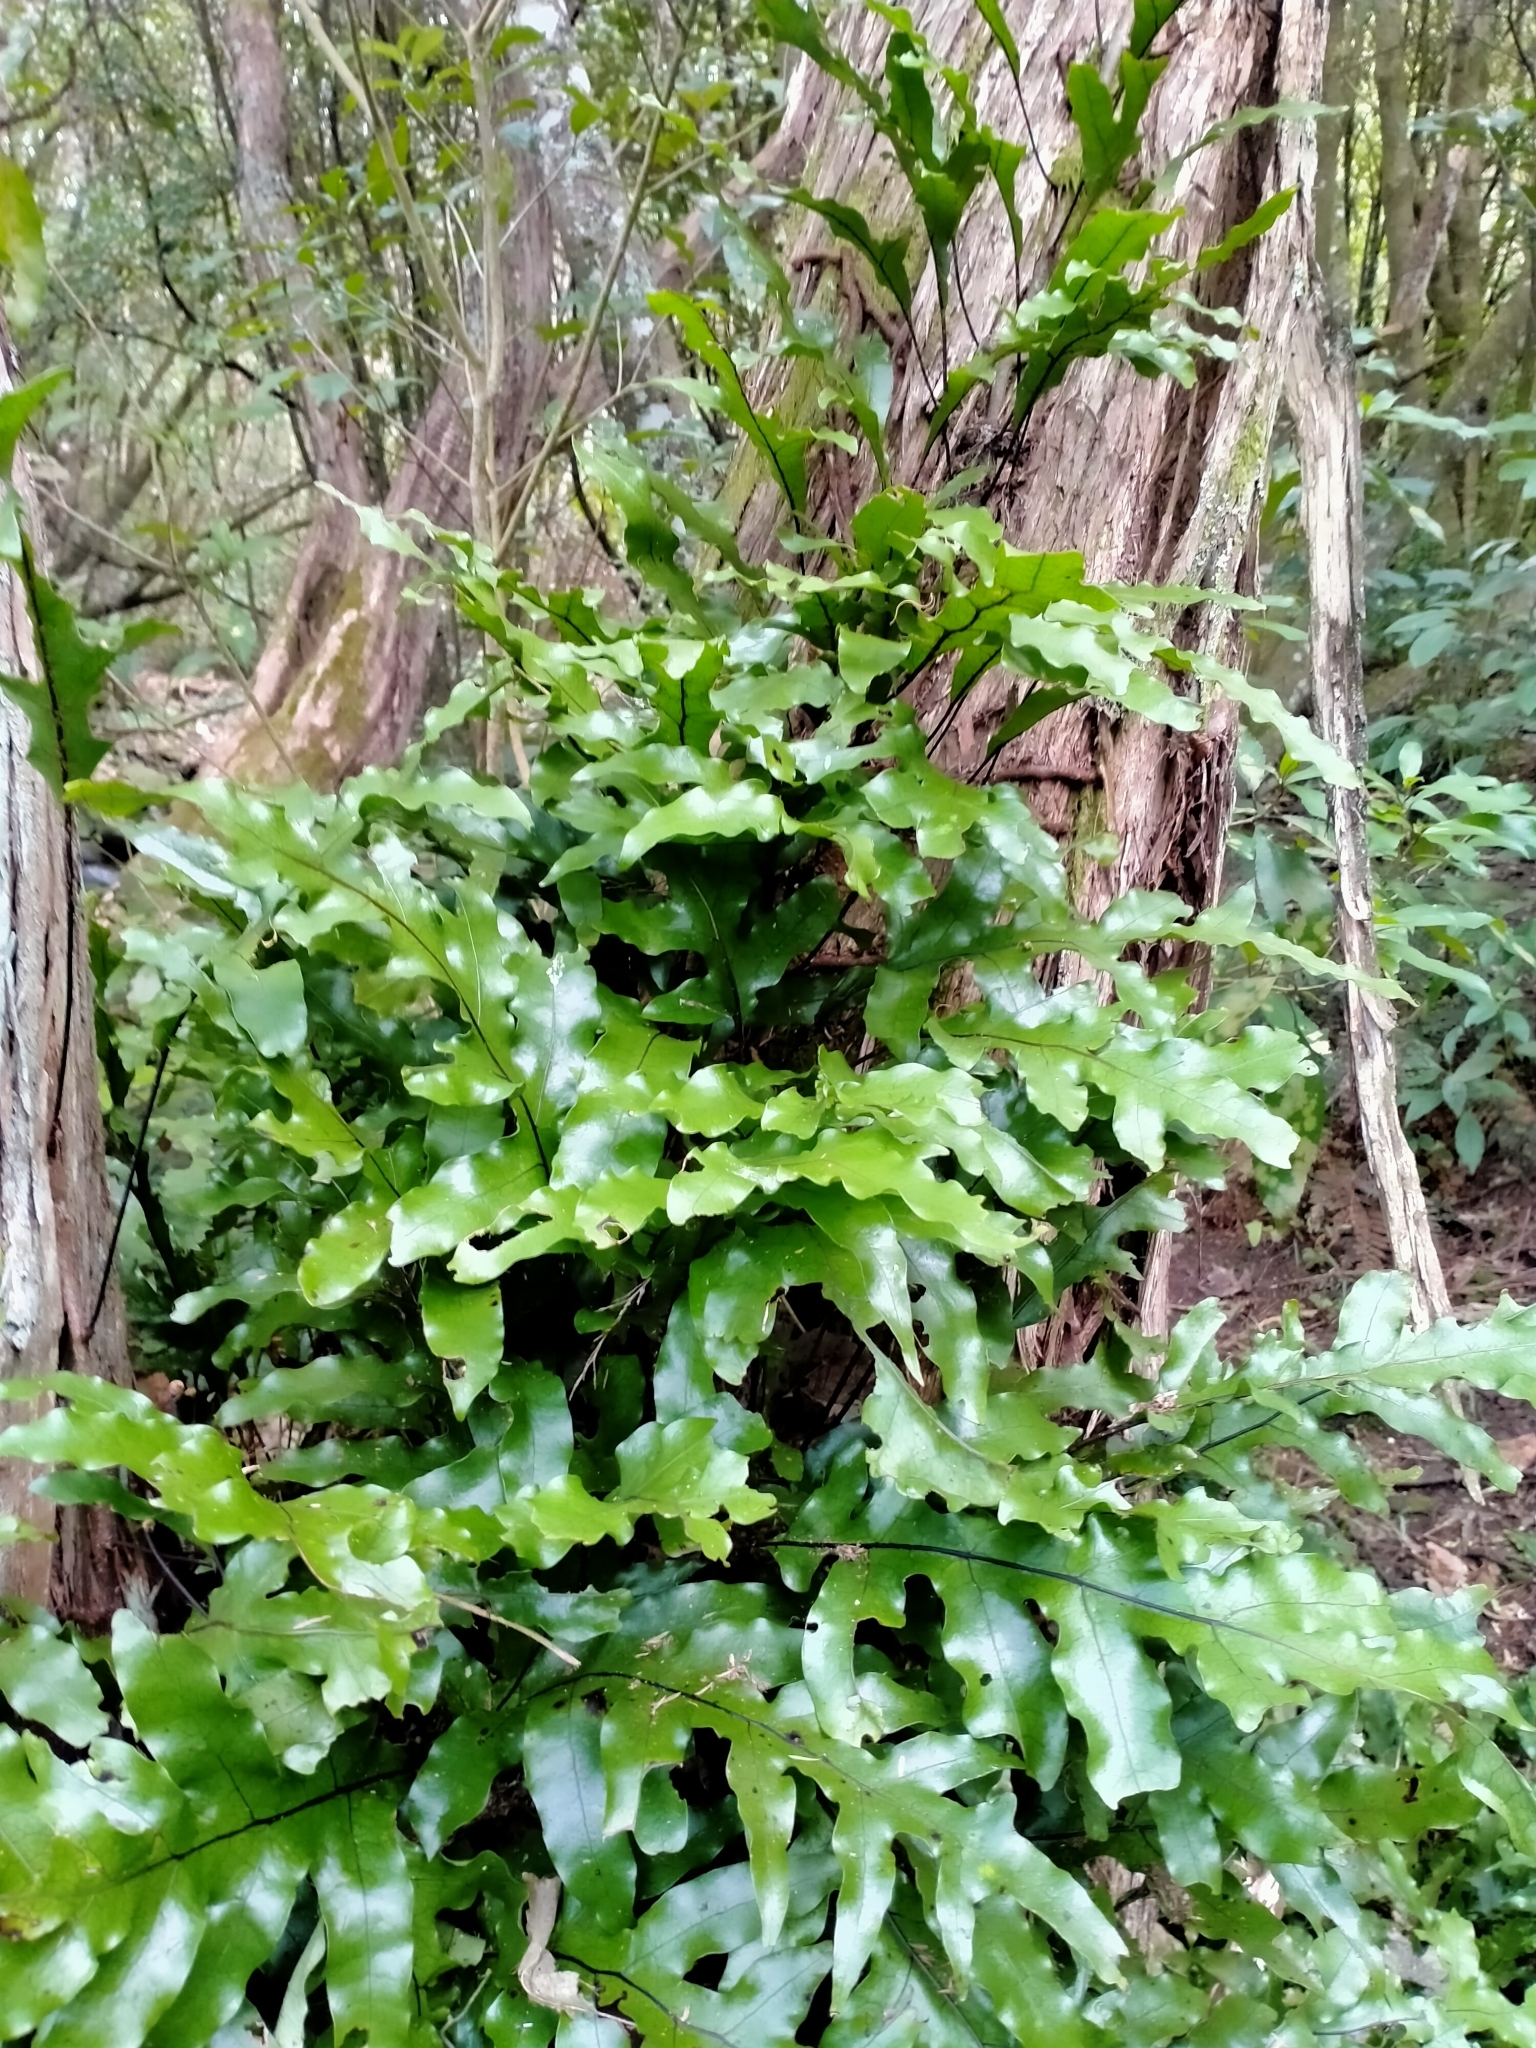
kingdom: Plantae
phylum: Tracheophyta
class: Polypodiopsida
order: Polypodiales
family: Polypodiaceae
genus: Lecanopteris
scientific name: Lecanopteris pustulata
